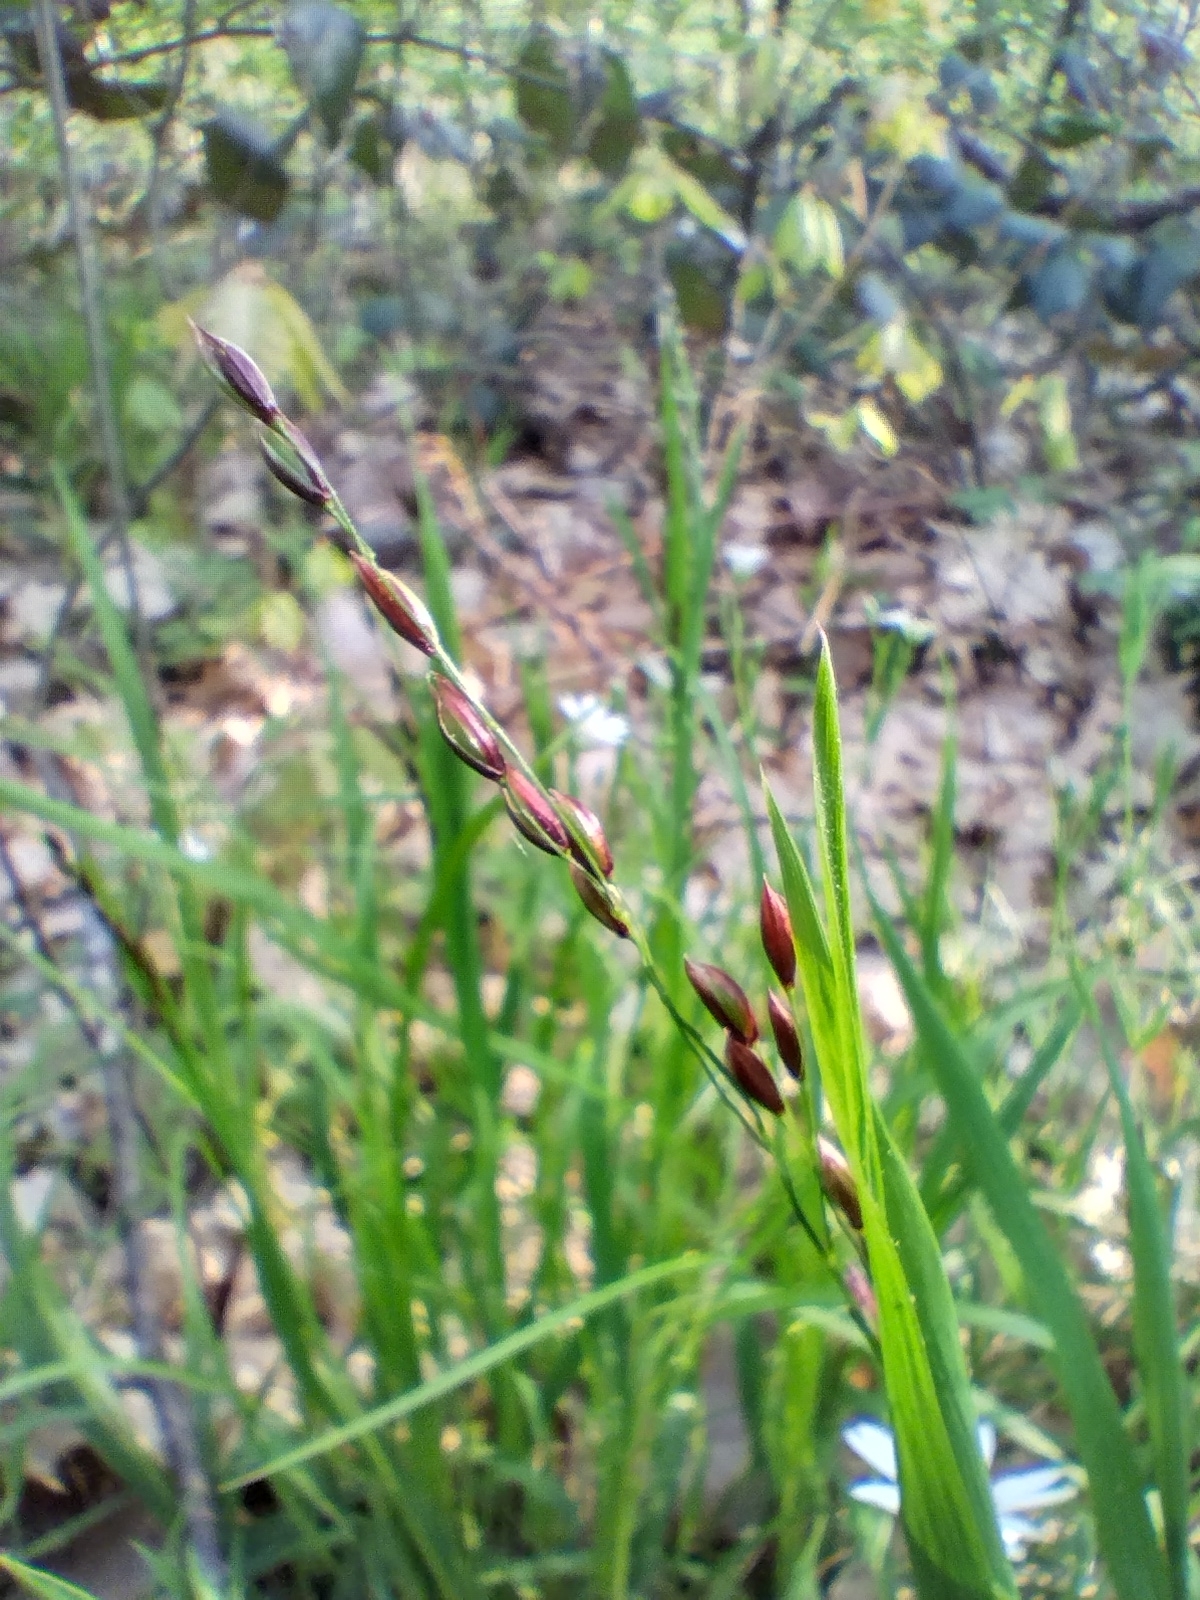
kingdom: Plantae
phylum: Tracheophyta
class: Liliopsida
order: Poales
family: Poaceae
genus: Melica
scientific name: Melica uniflora
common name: Wood melick
